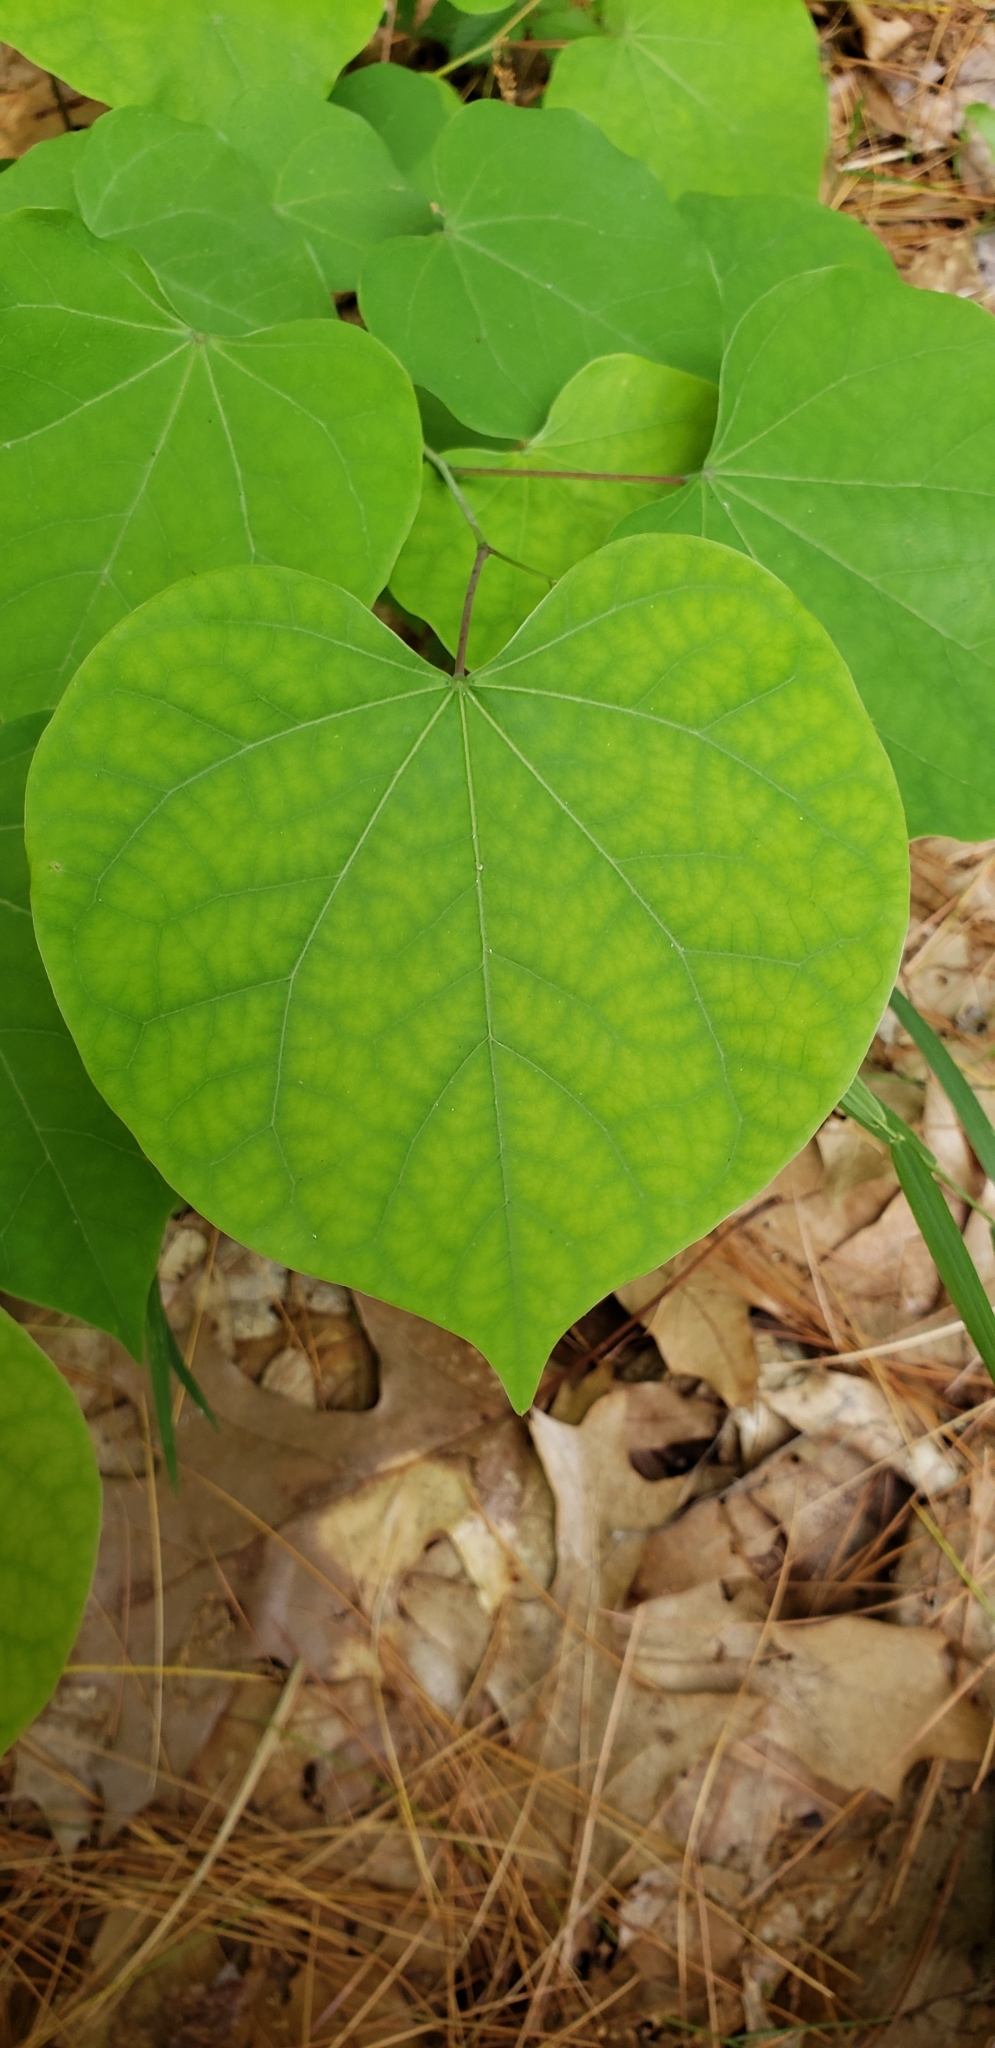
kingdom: Plantae
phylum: Tracheophyta
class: Magnoliopsida
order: Fabales
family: Fabaceae
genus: Cercis
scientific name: Cercis canadensis
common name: Eastern redbud
